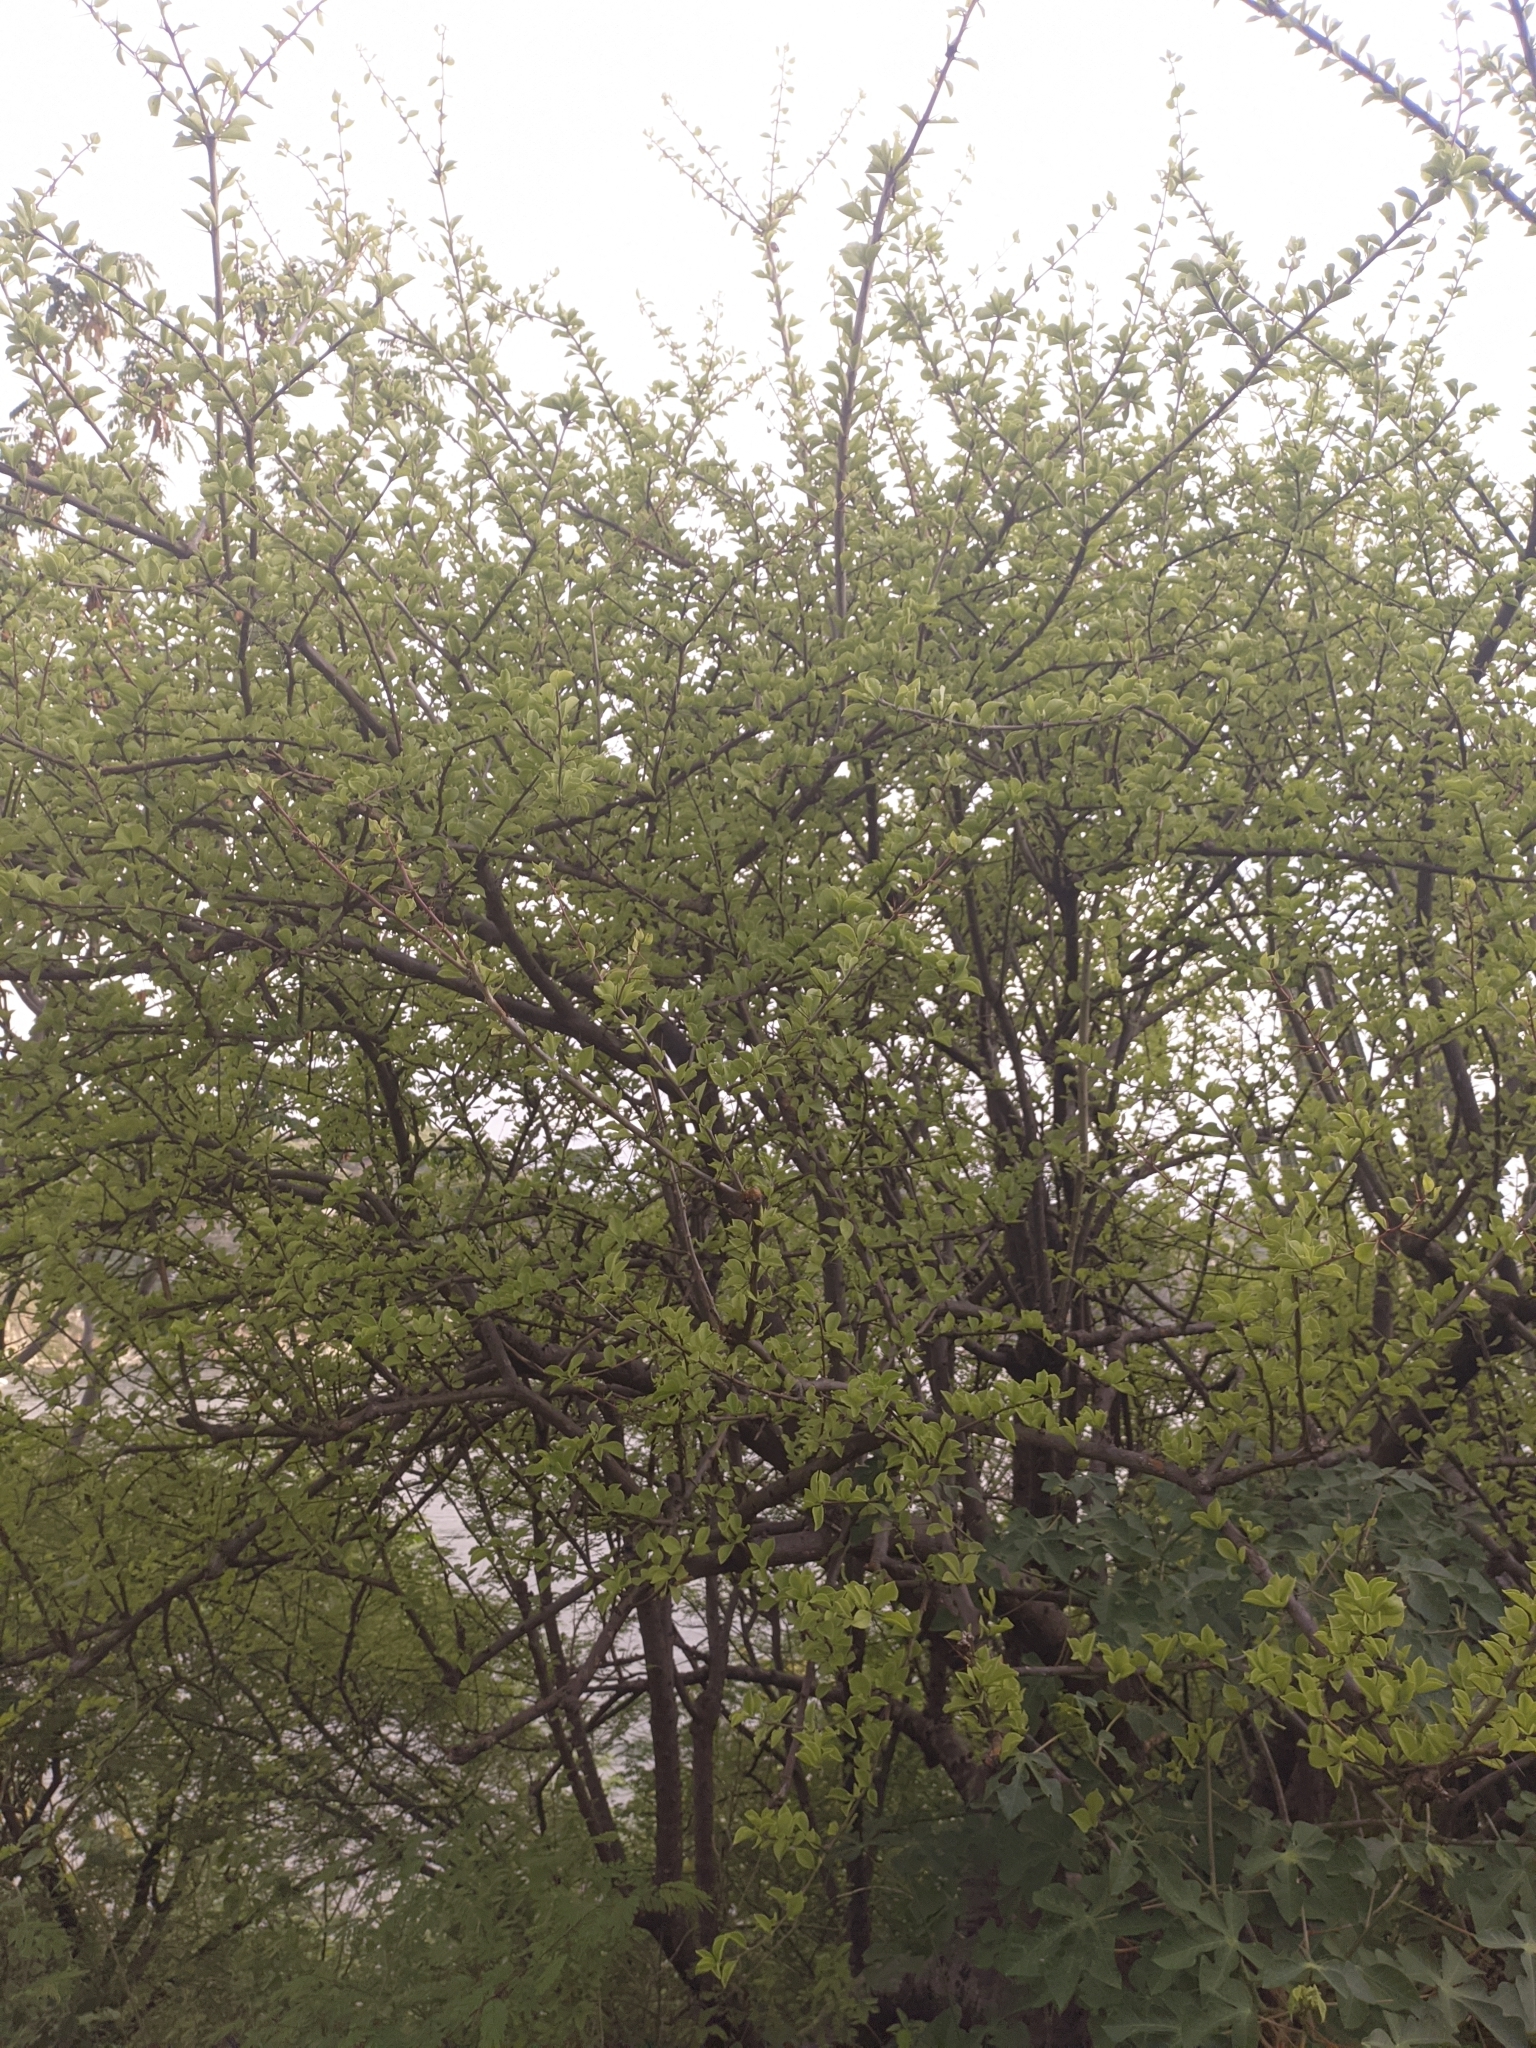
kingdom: Plantae
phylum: Tracheophyta
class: Magnoliopsida
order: Caryophyllales
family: Cactaceae
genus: Leuenbergeria
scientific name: Leuenbergeria guamacho
